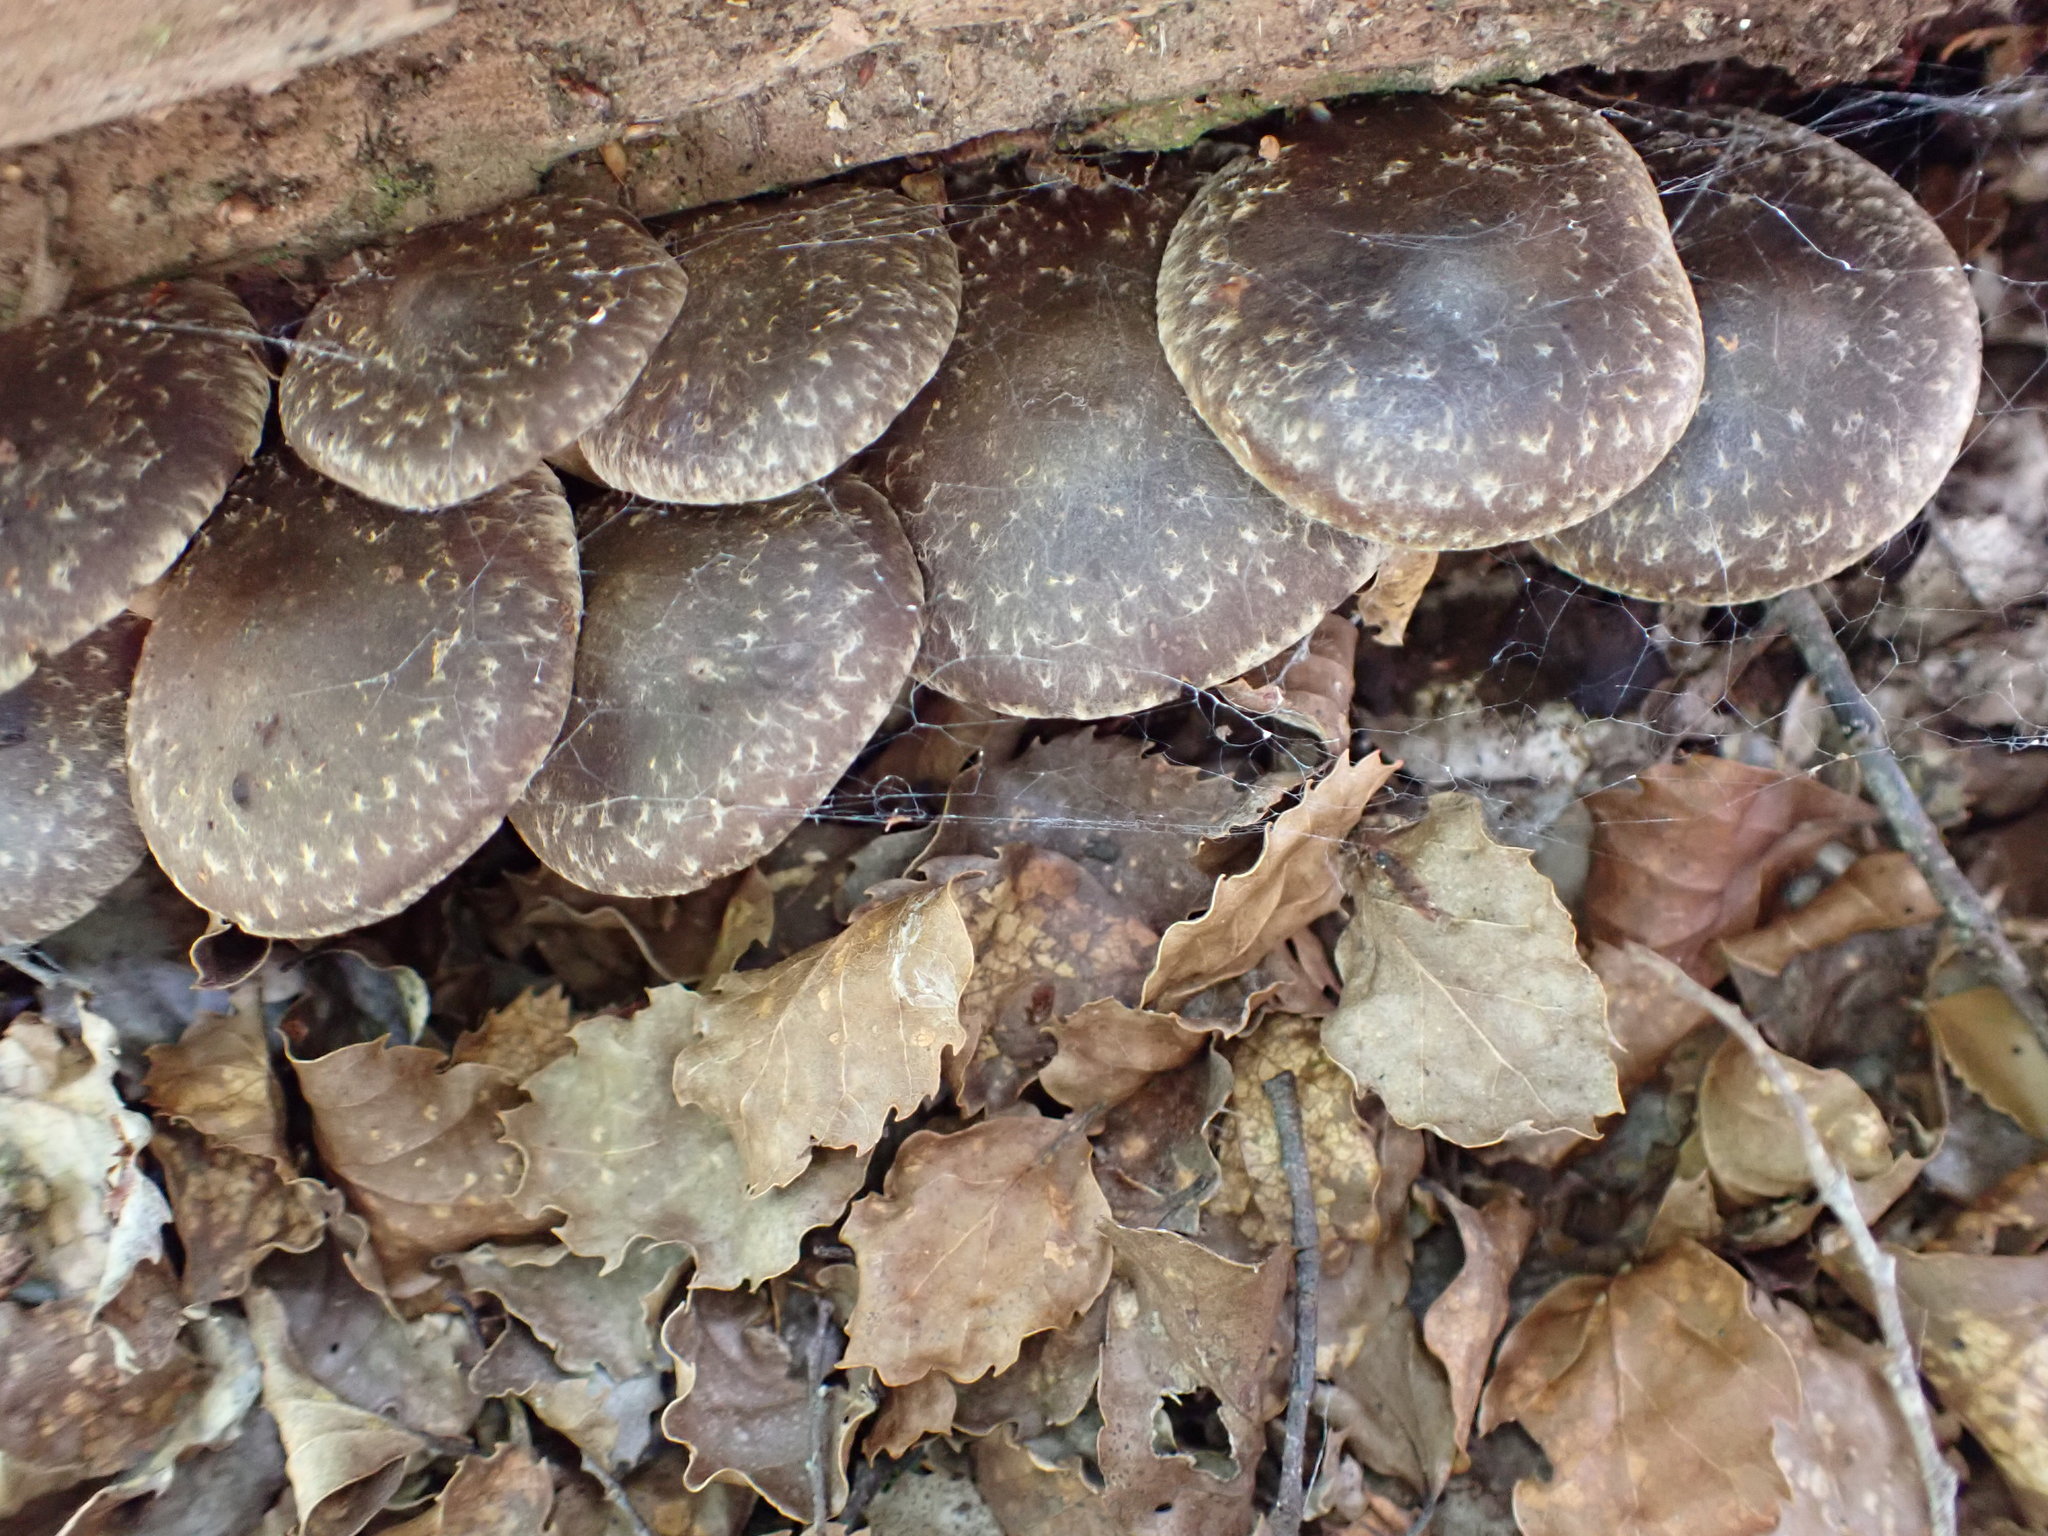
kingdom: Fungi
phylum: Basidiomycota
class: Agaricomycetes
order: Agaricales
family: Strophariaceae
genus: Hypholoma
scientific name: Hypholoma brunneum
